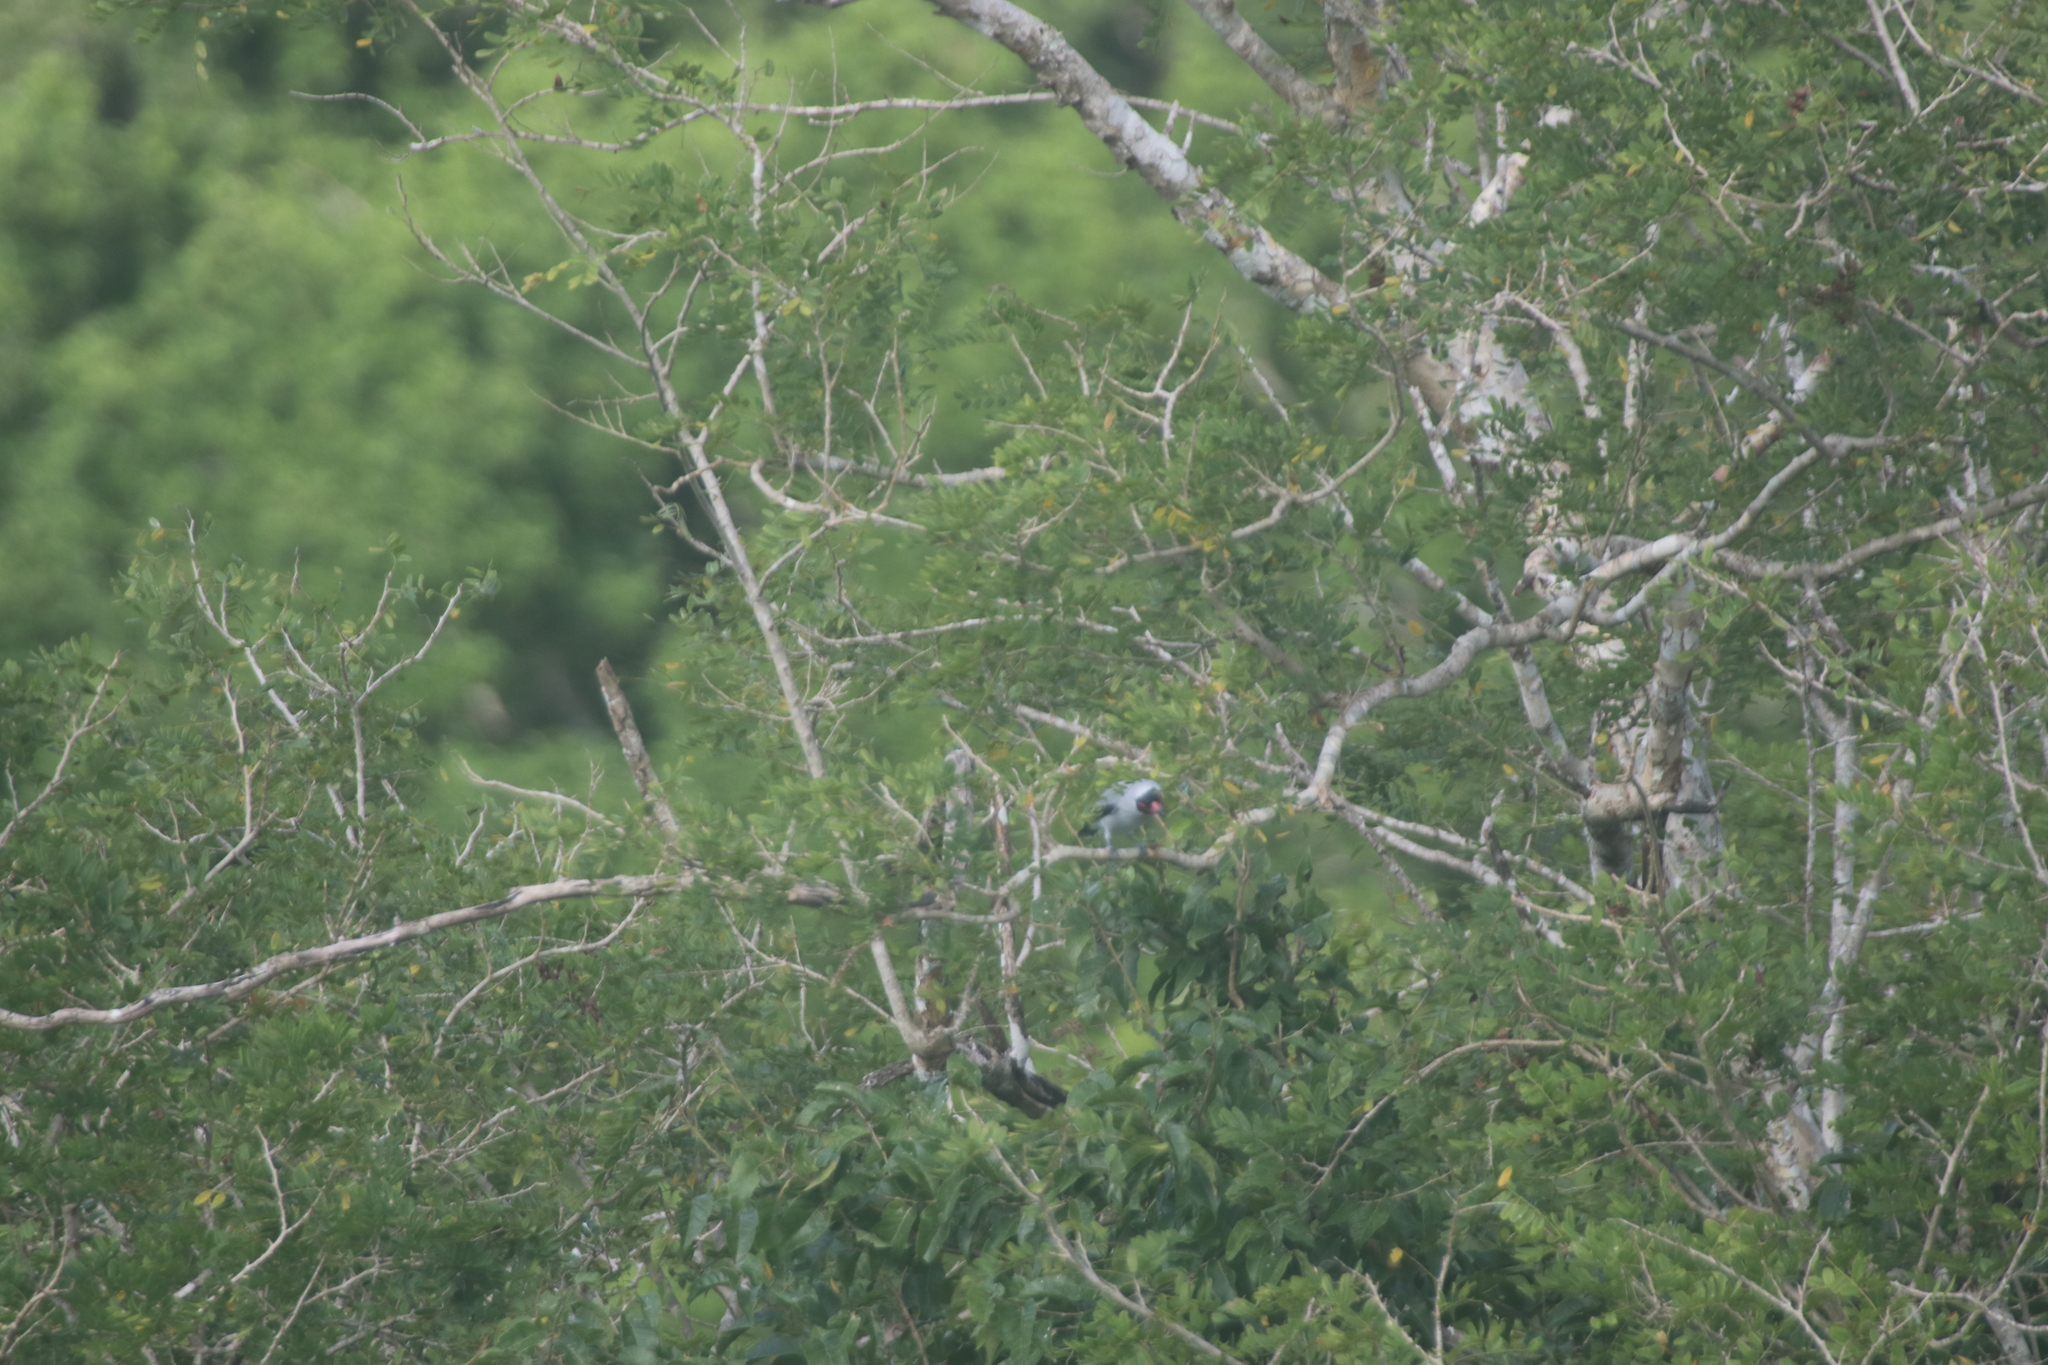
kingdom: Animalia
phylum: Chordata
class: Aves
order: Passeriformes
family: Cotingidae
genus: Tityra
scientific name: Tityra semifasciata
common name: Masked tityra
